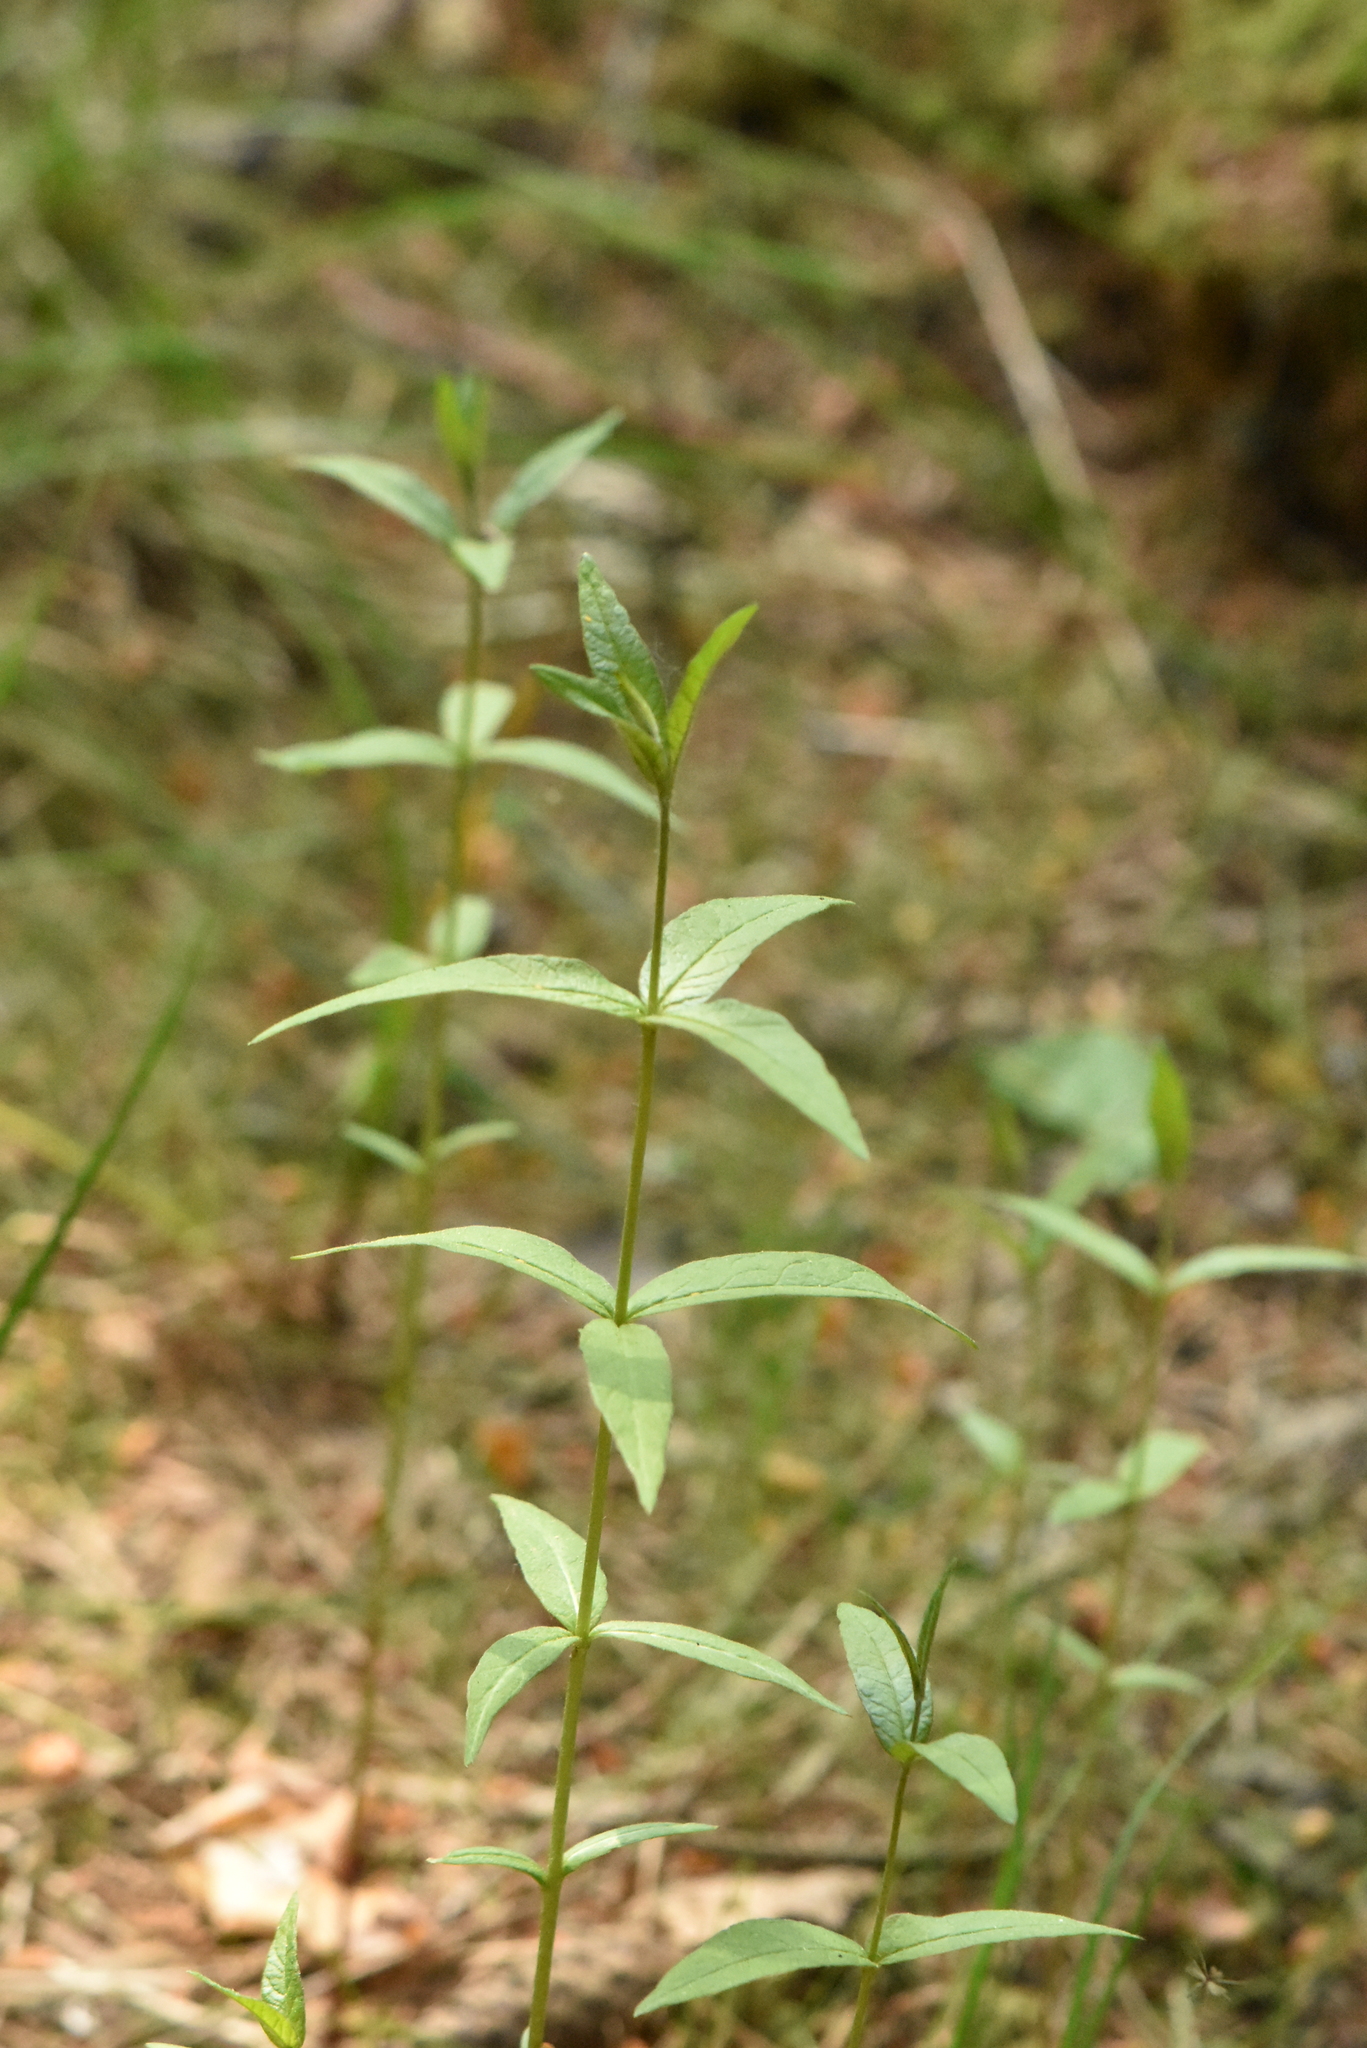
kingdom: Plantae
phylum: Tracheophyta
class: Magnoliopsida
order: Ericales
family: Primulaceae
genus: Lysimachia
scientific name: Lysimachia vulgaris
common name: Yellow loosestrife
